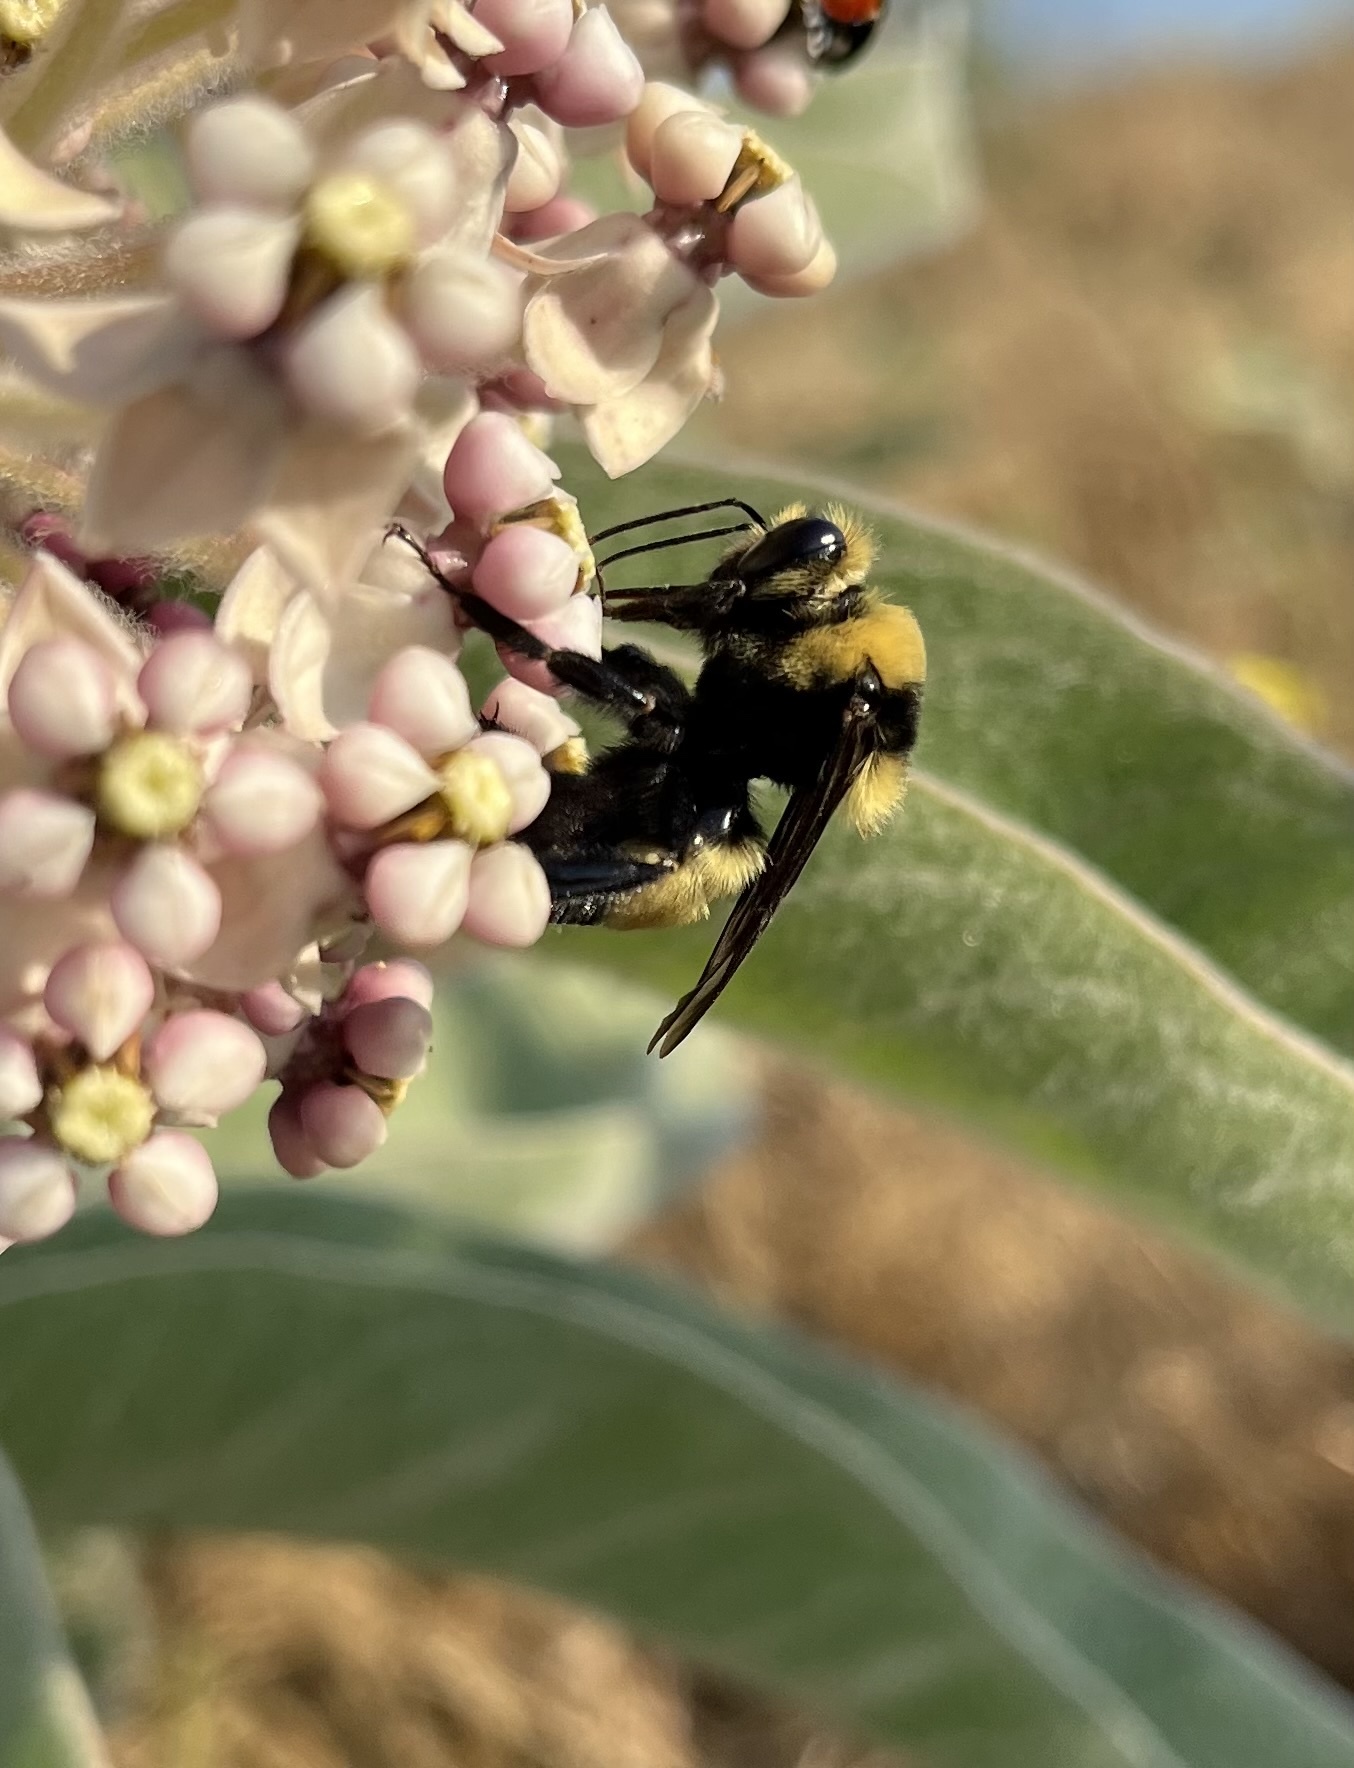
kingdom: Animalia
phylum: Arthropoda
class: Insecta
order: Hymenoptera
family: Apidae
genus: Bombus
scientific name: Bombus crotchii
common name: Crotch bumble bee
